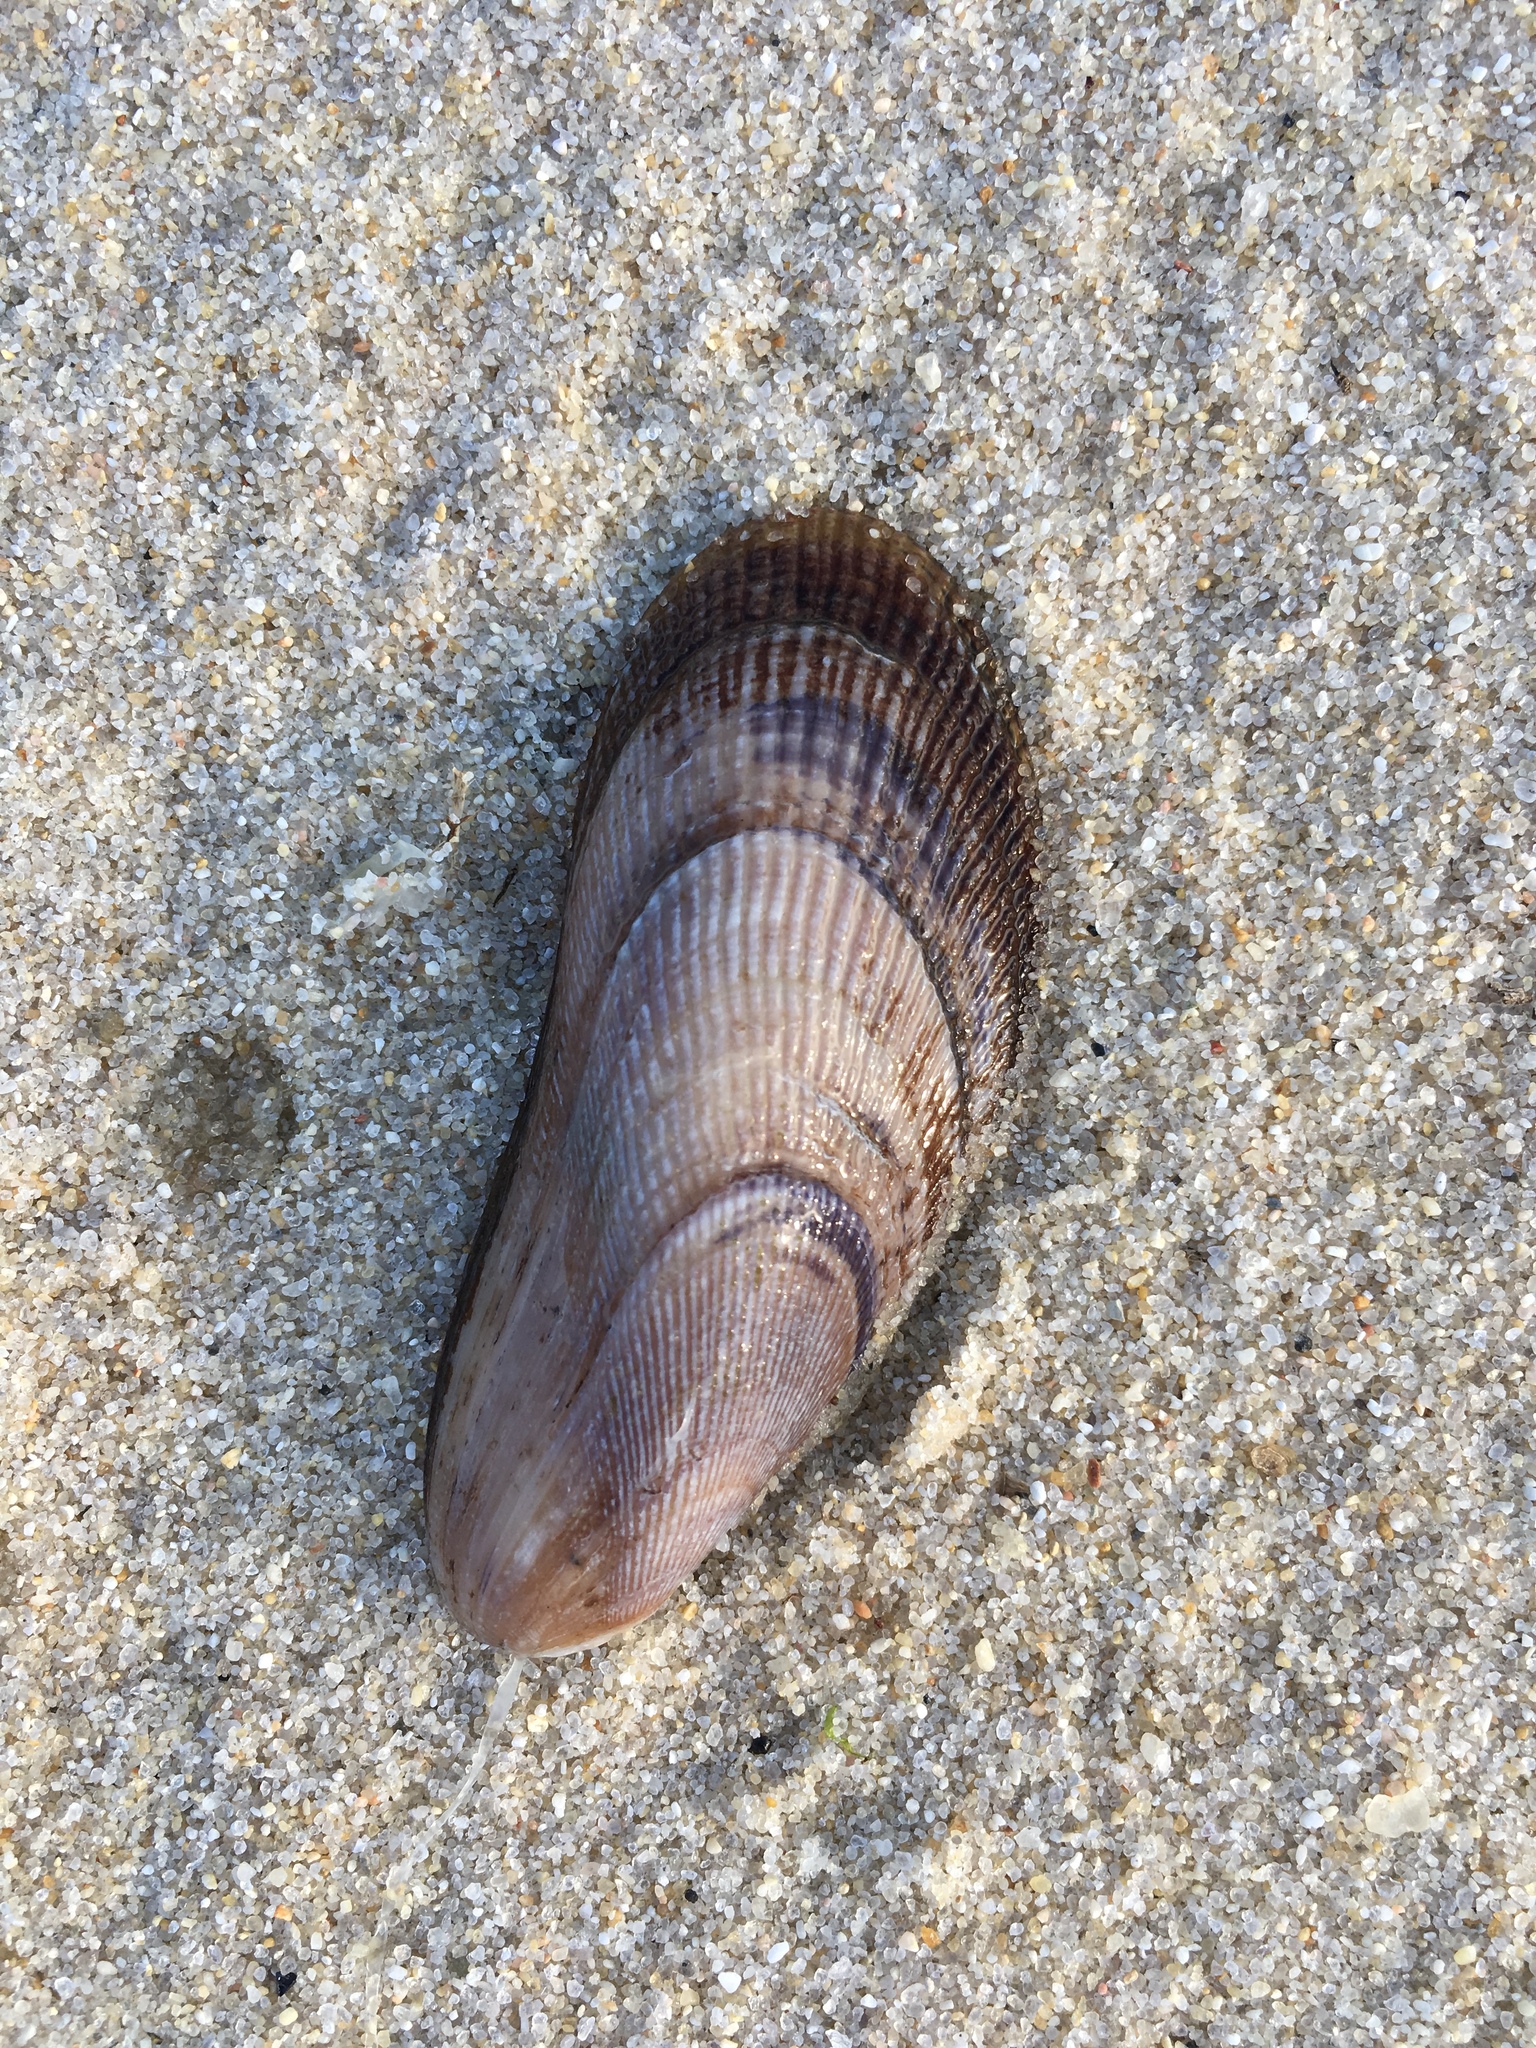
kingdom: Animalia
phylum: Mollusca
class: Bivalvia
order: Mytilida
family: Mytilidae
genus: Geukensia
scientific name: Geukensia demissa
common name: Ribbed mussel
